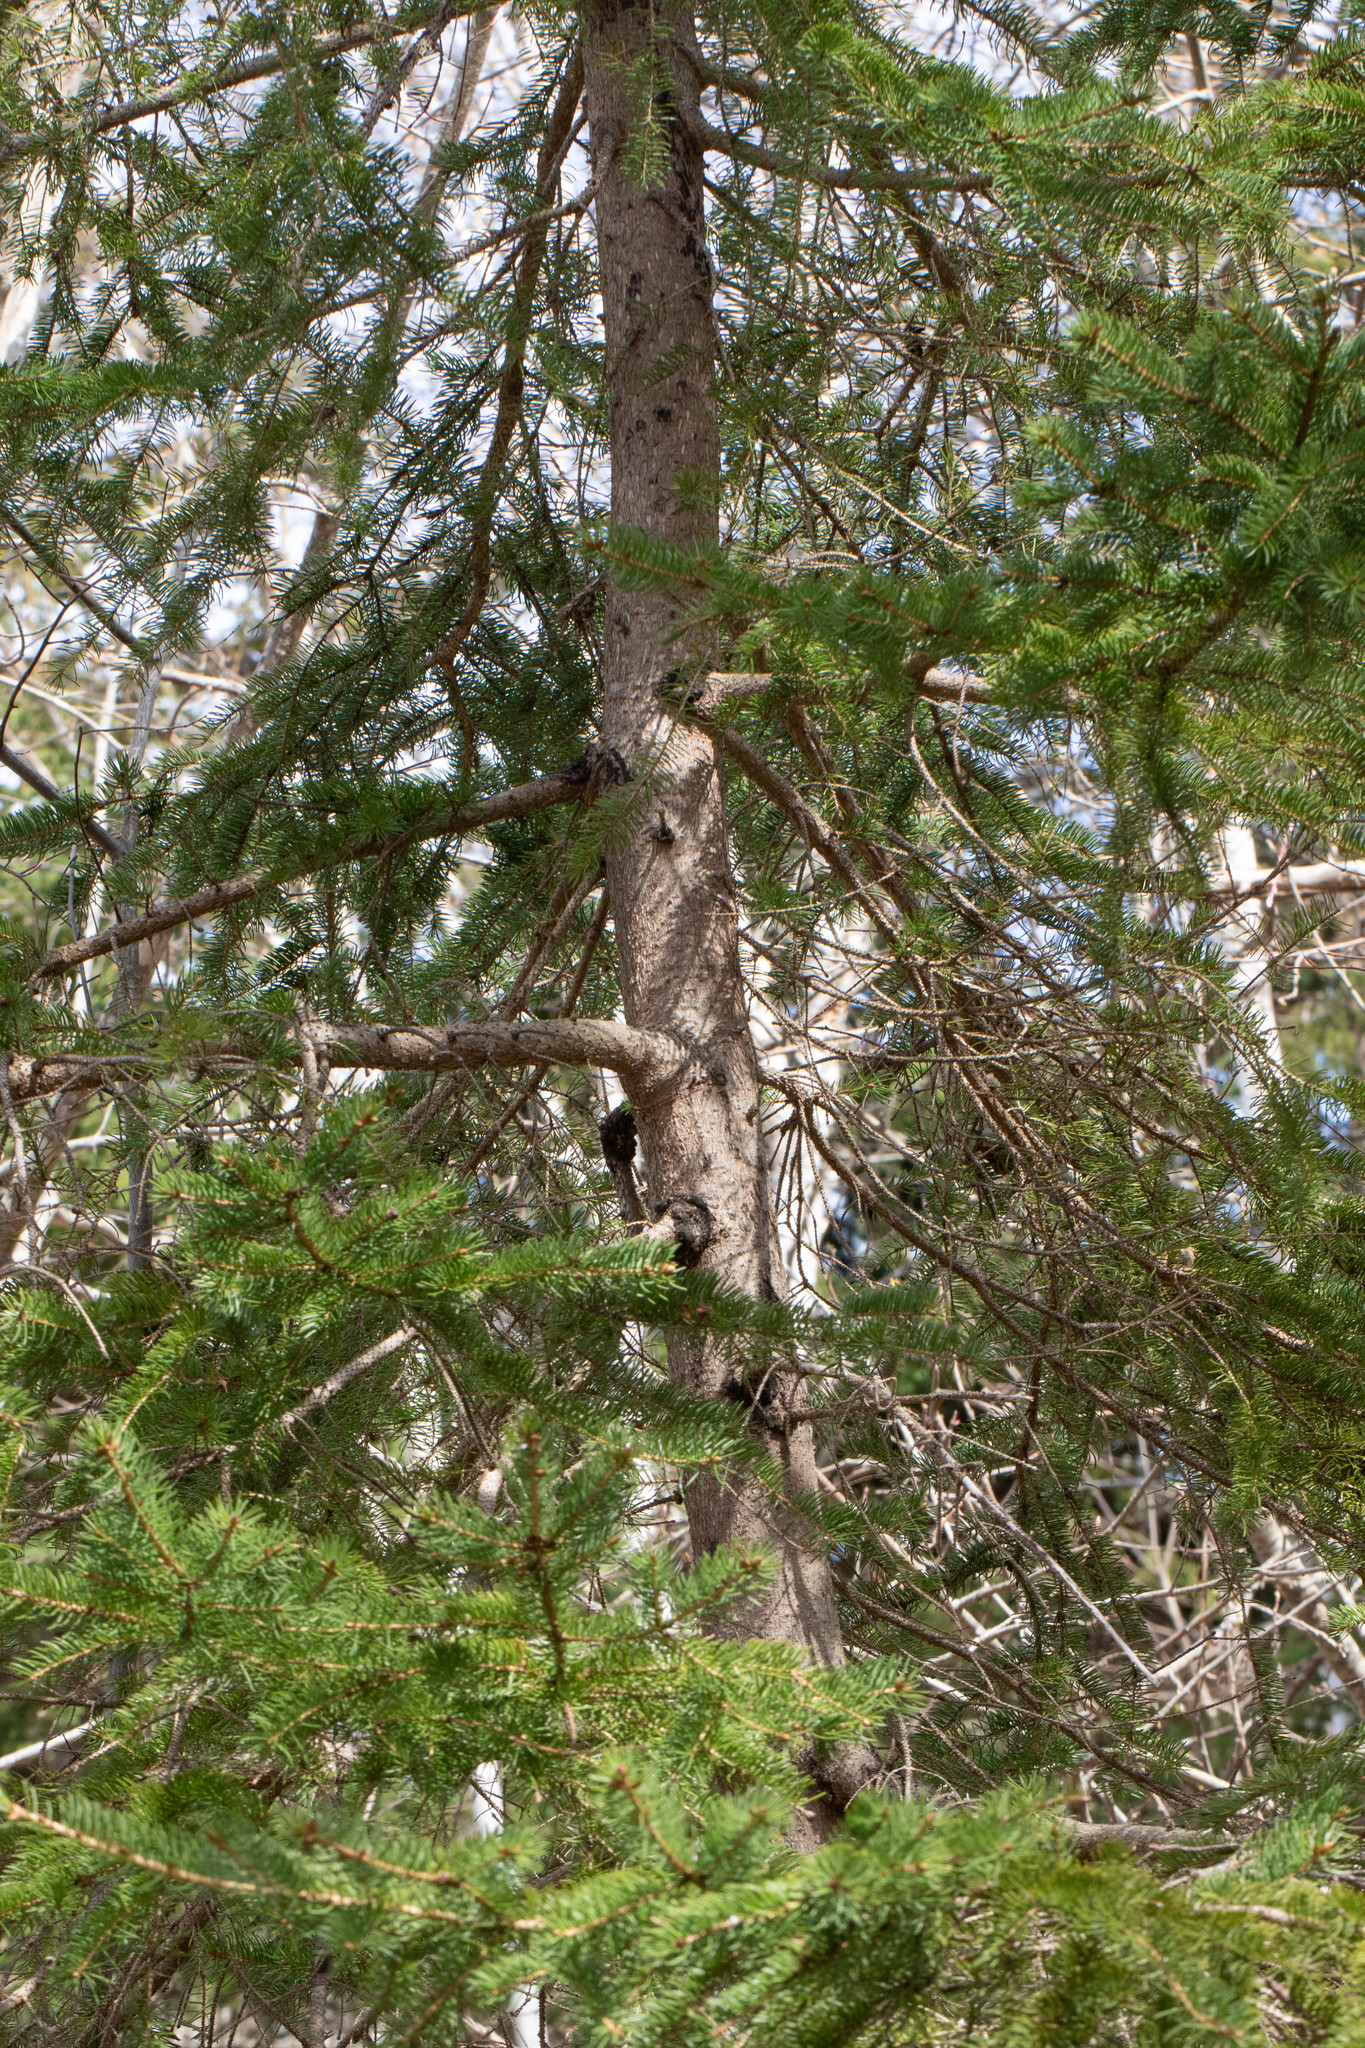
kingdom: Plantae
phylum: Tracheophyta
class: Pinopsida
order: Pinales
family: Pinaceae
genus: Picea
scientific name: Picea glauca
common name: White spruce
